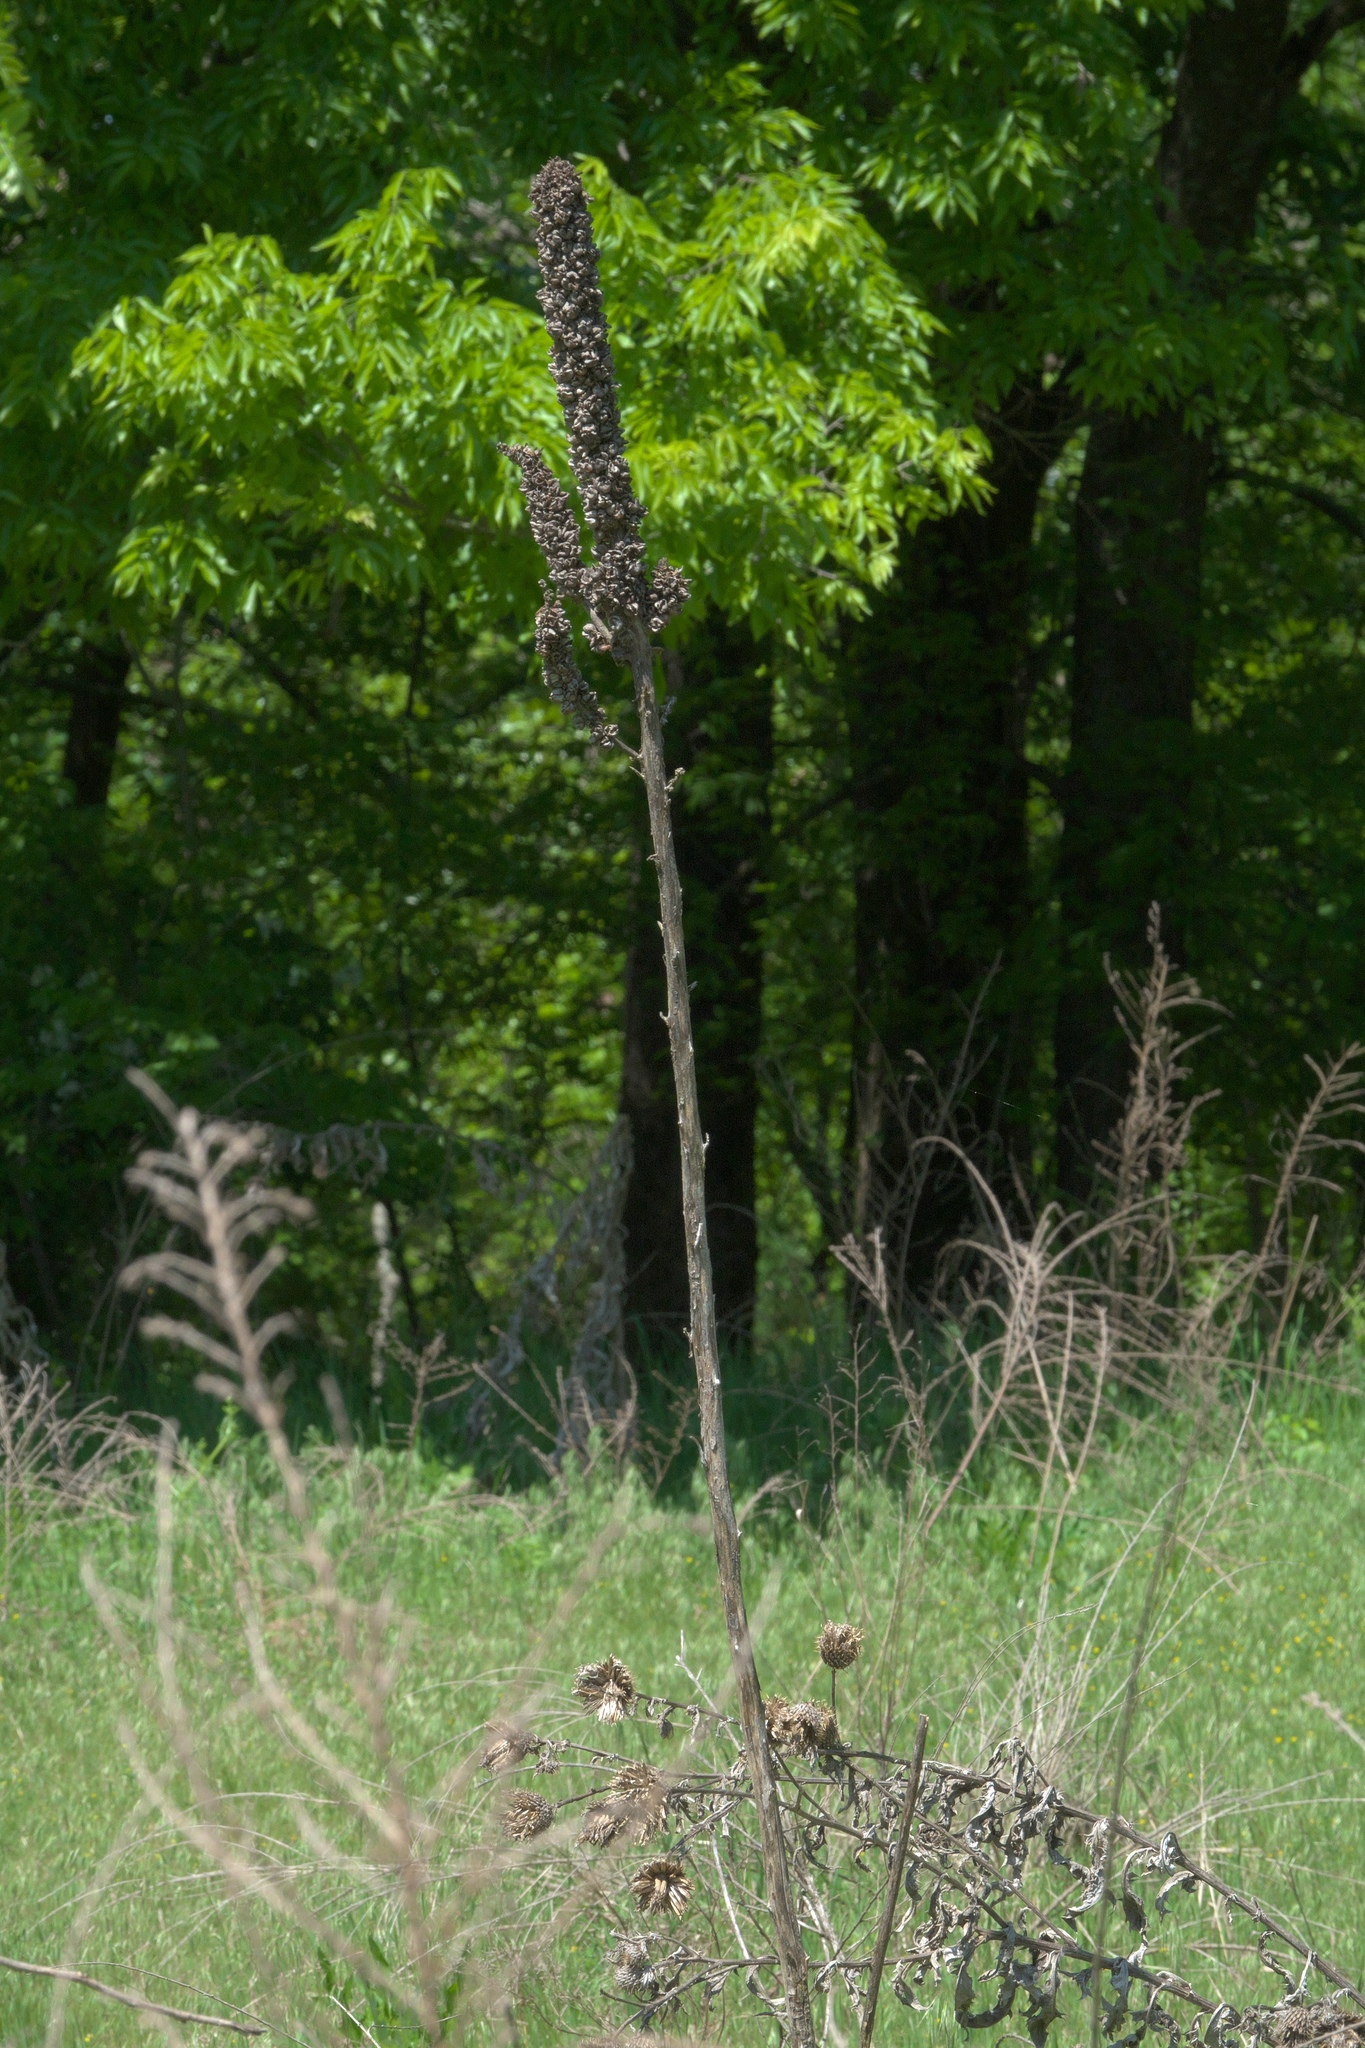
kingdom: Plantae
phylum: Tracheophyta
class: Magnoliopsida
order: Lamiales
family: Scrophulariaceae
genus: Verbascum
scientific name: Verbascum thapsus
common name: Common mullein
